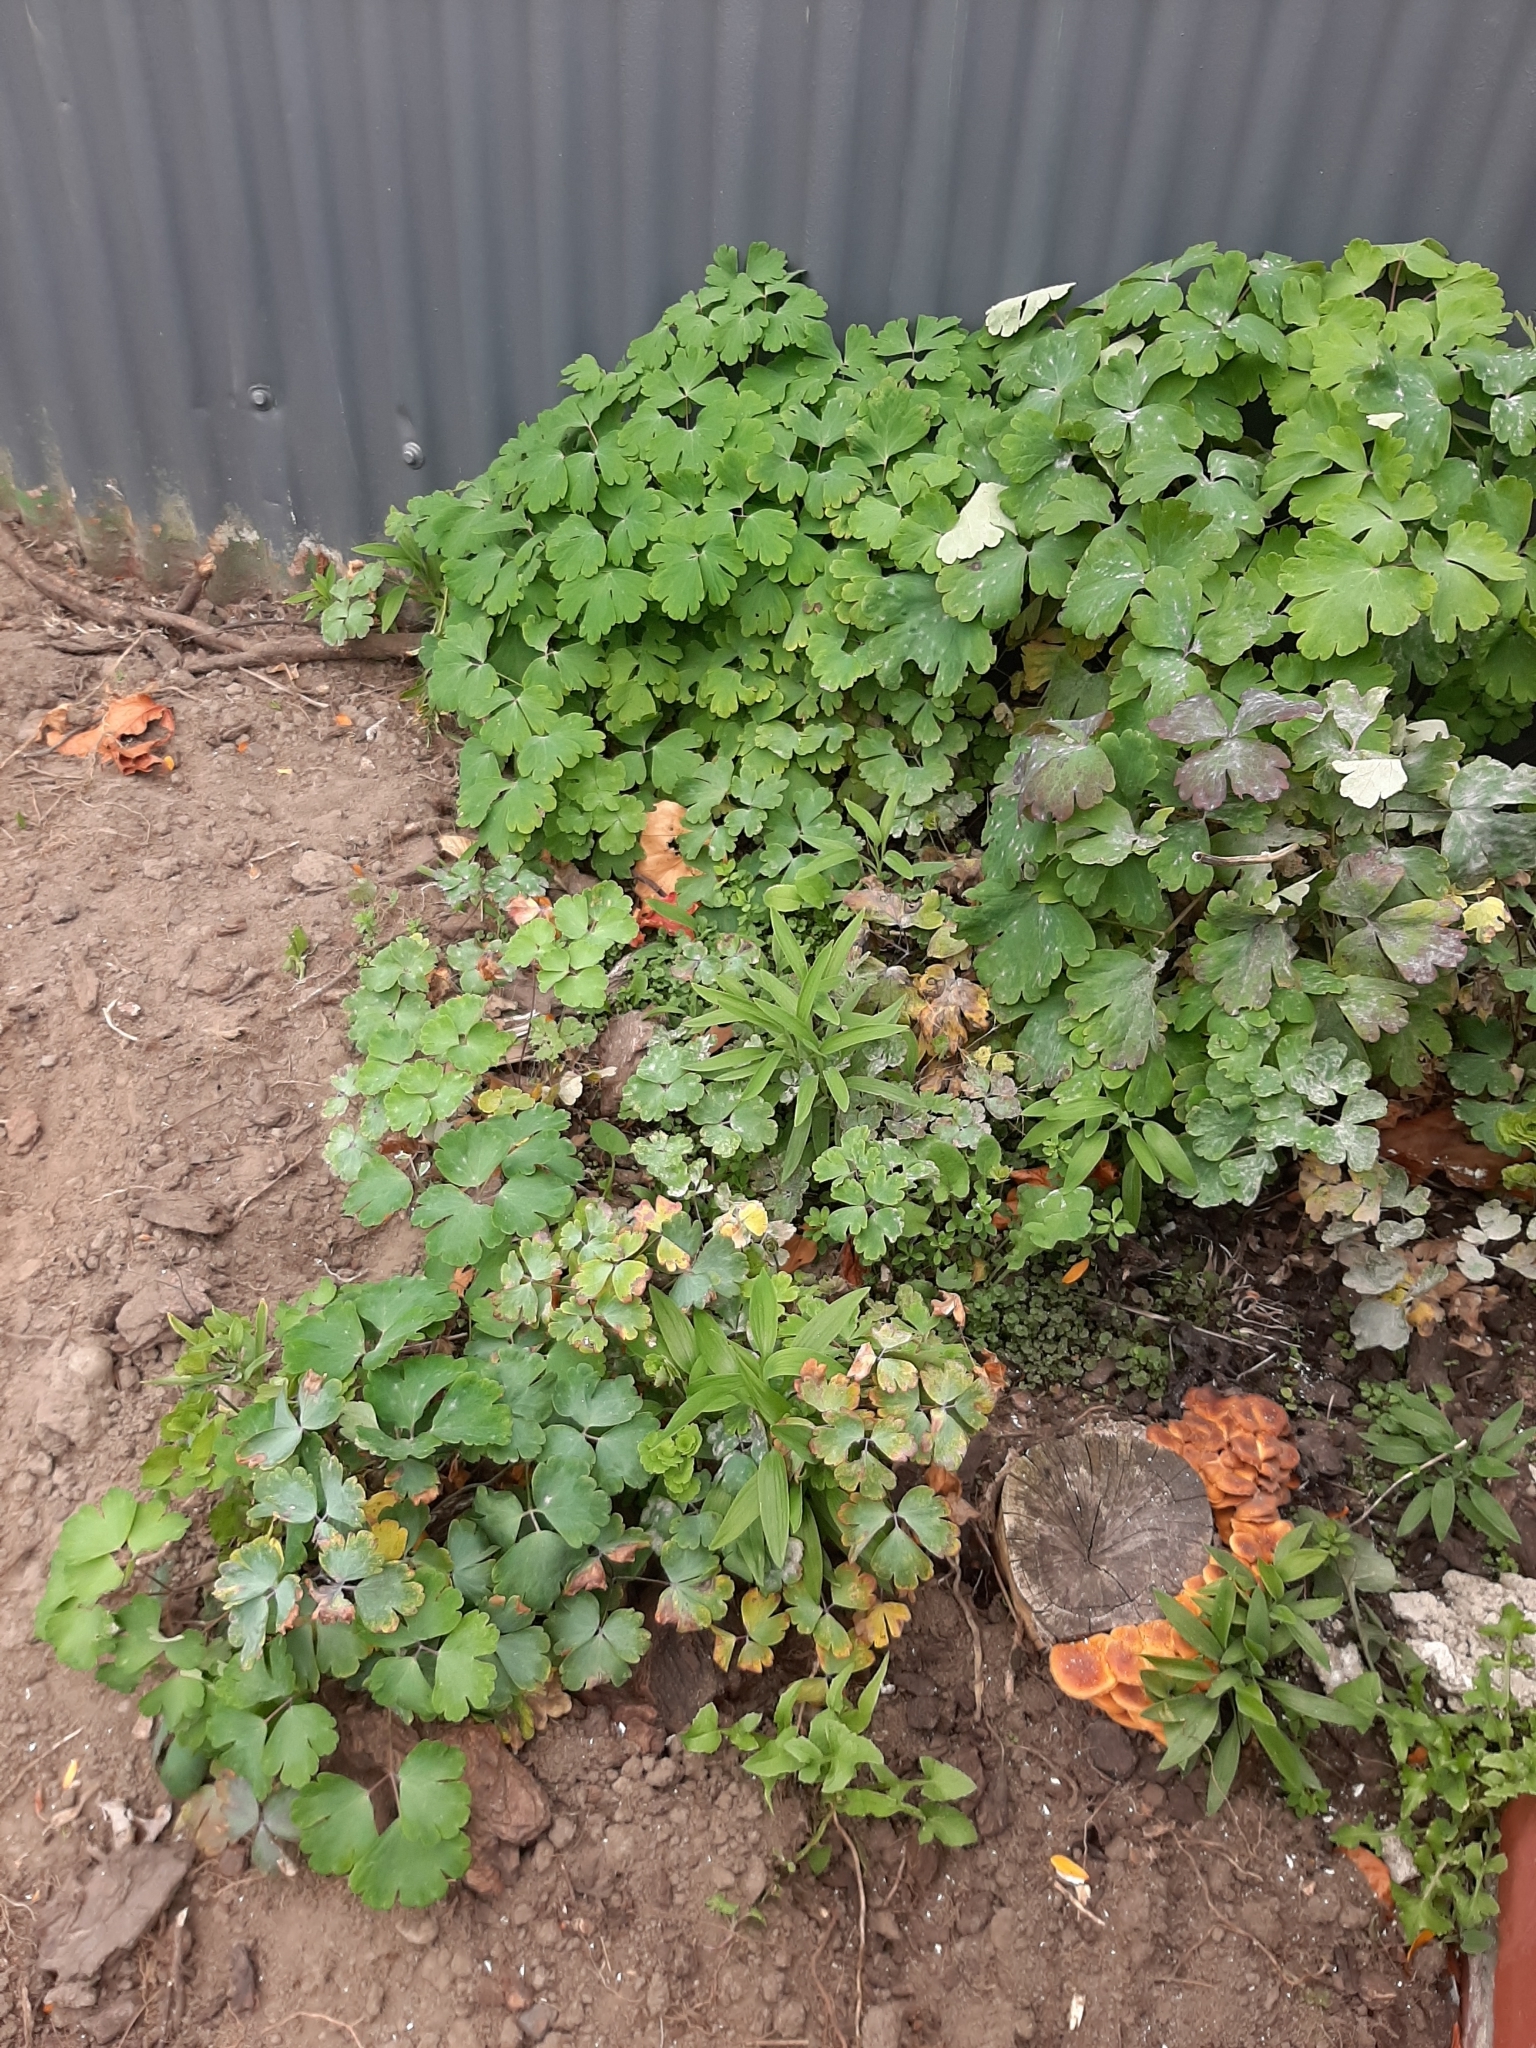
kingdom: Plantae
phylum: Tracheophyta
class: Magnoliopsida
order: Ranunculales
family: Ranunculaceae
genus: Aquilegia
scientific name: Aquilegia vulgaris
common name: Columbine
